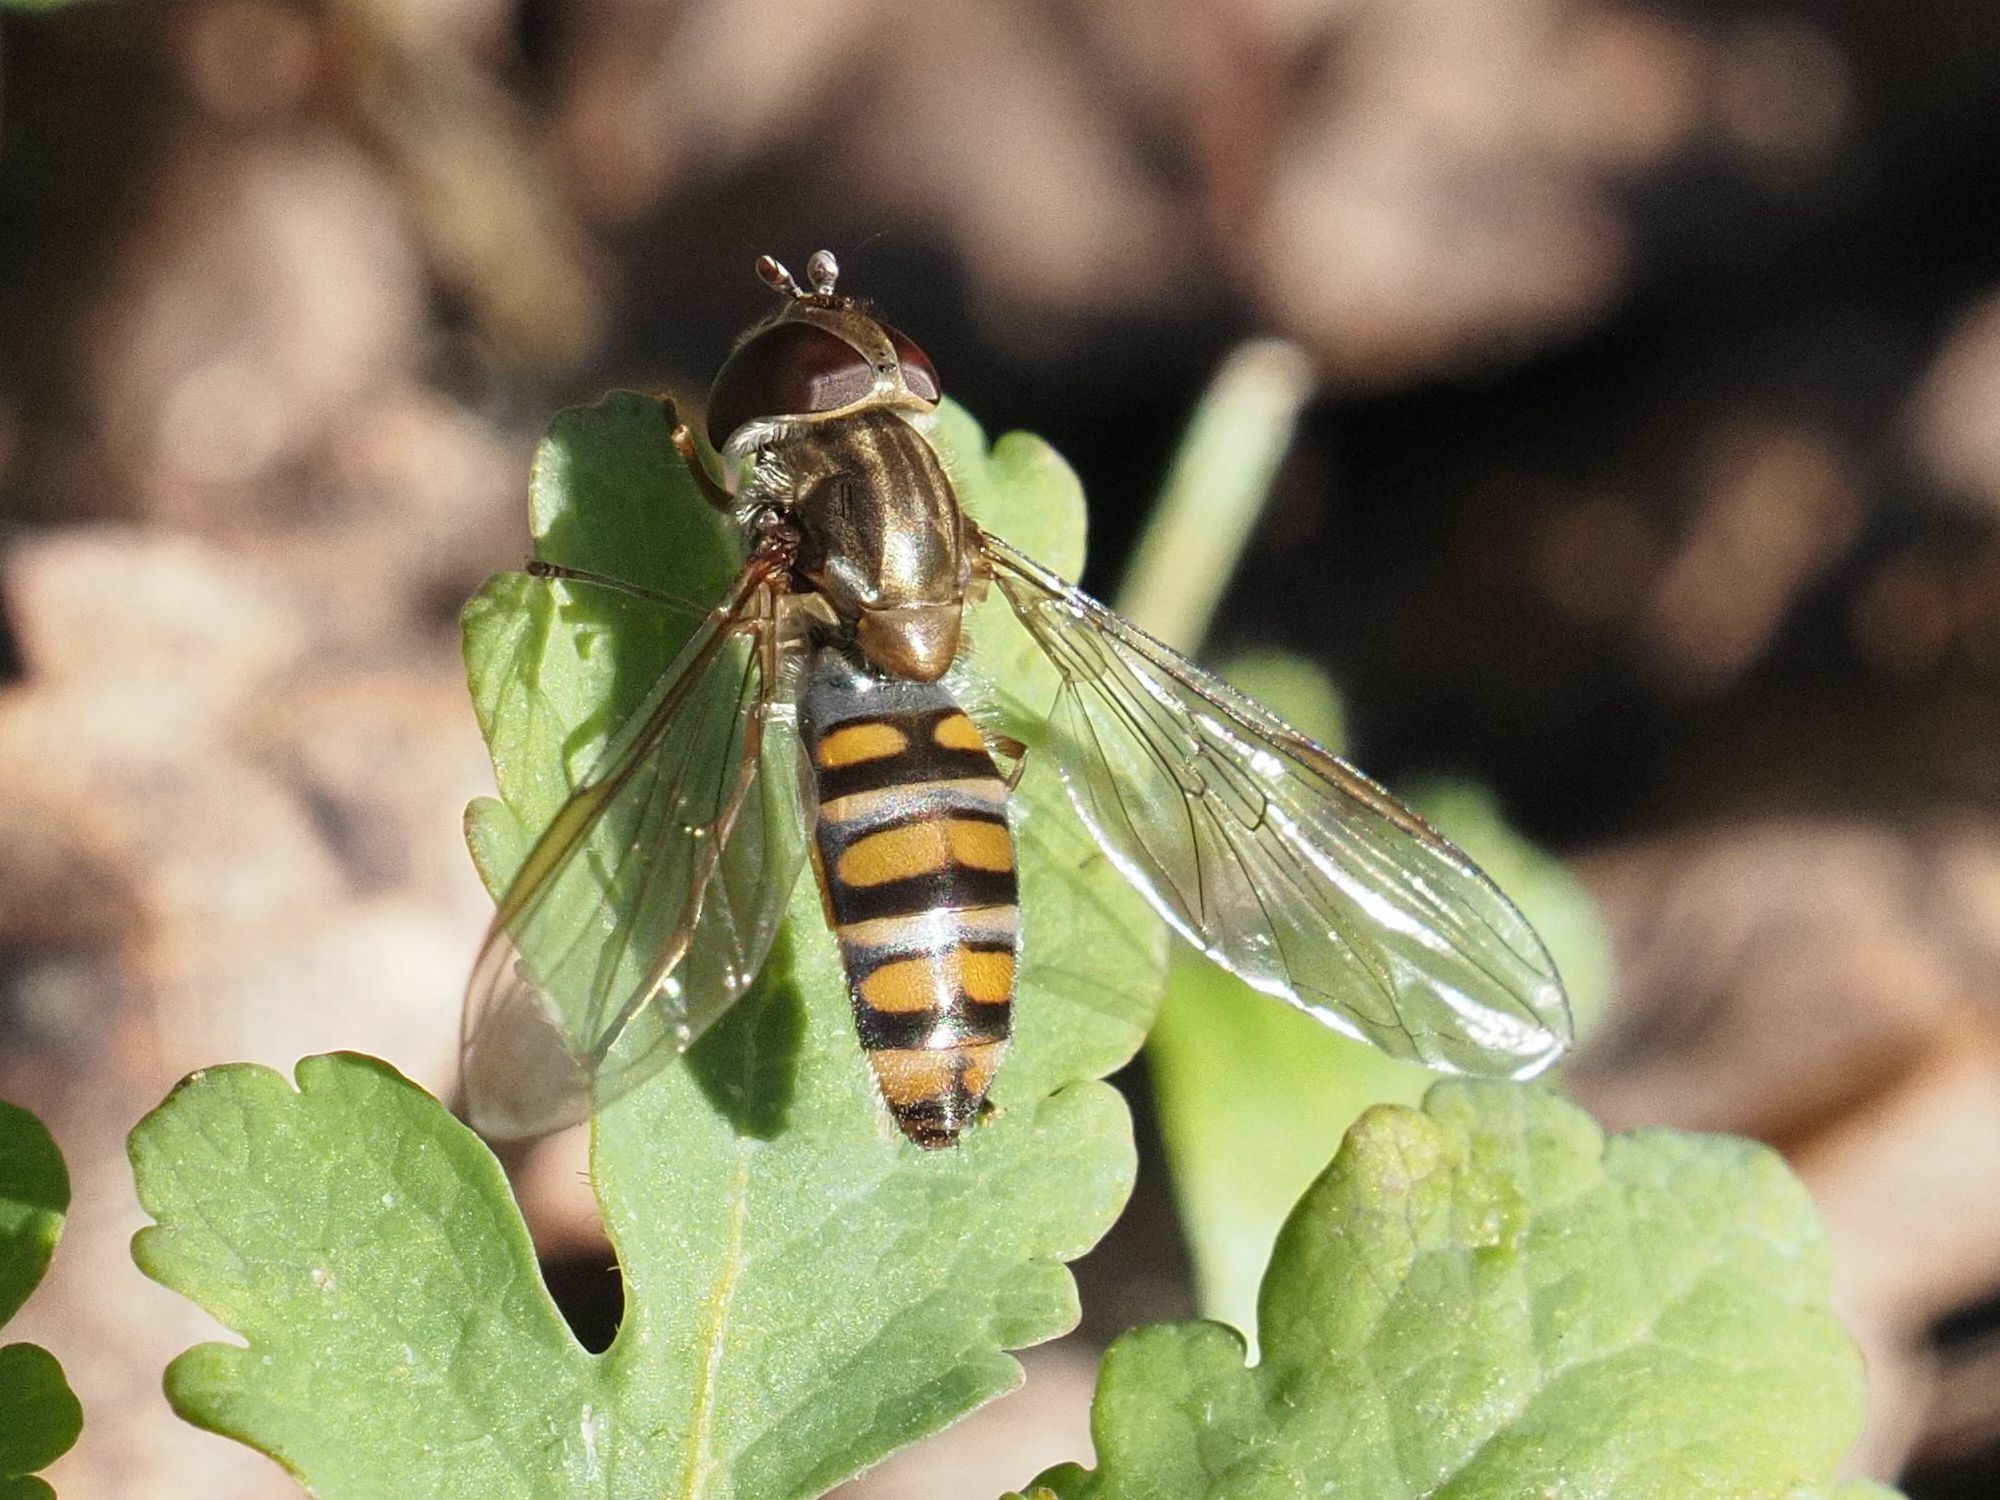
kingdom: Animalia
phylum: Arthropoda
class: Insecta
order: Diptera
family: Syrphidae
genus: Episyrphus
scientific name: Episyrphus balteatus
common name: Marmalade hoverfly
